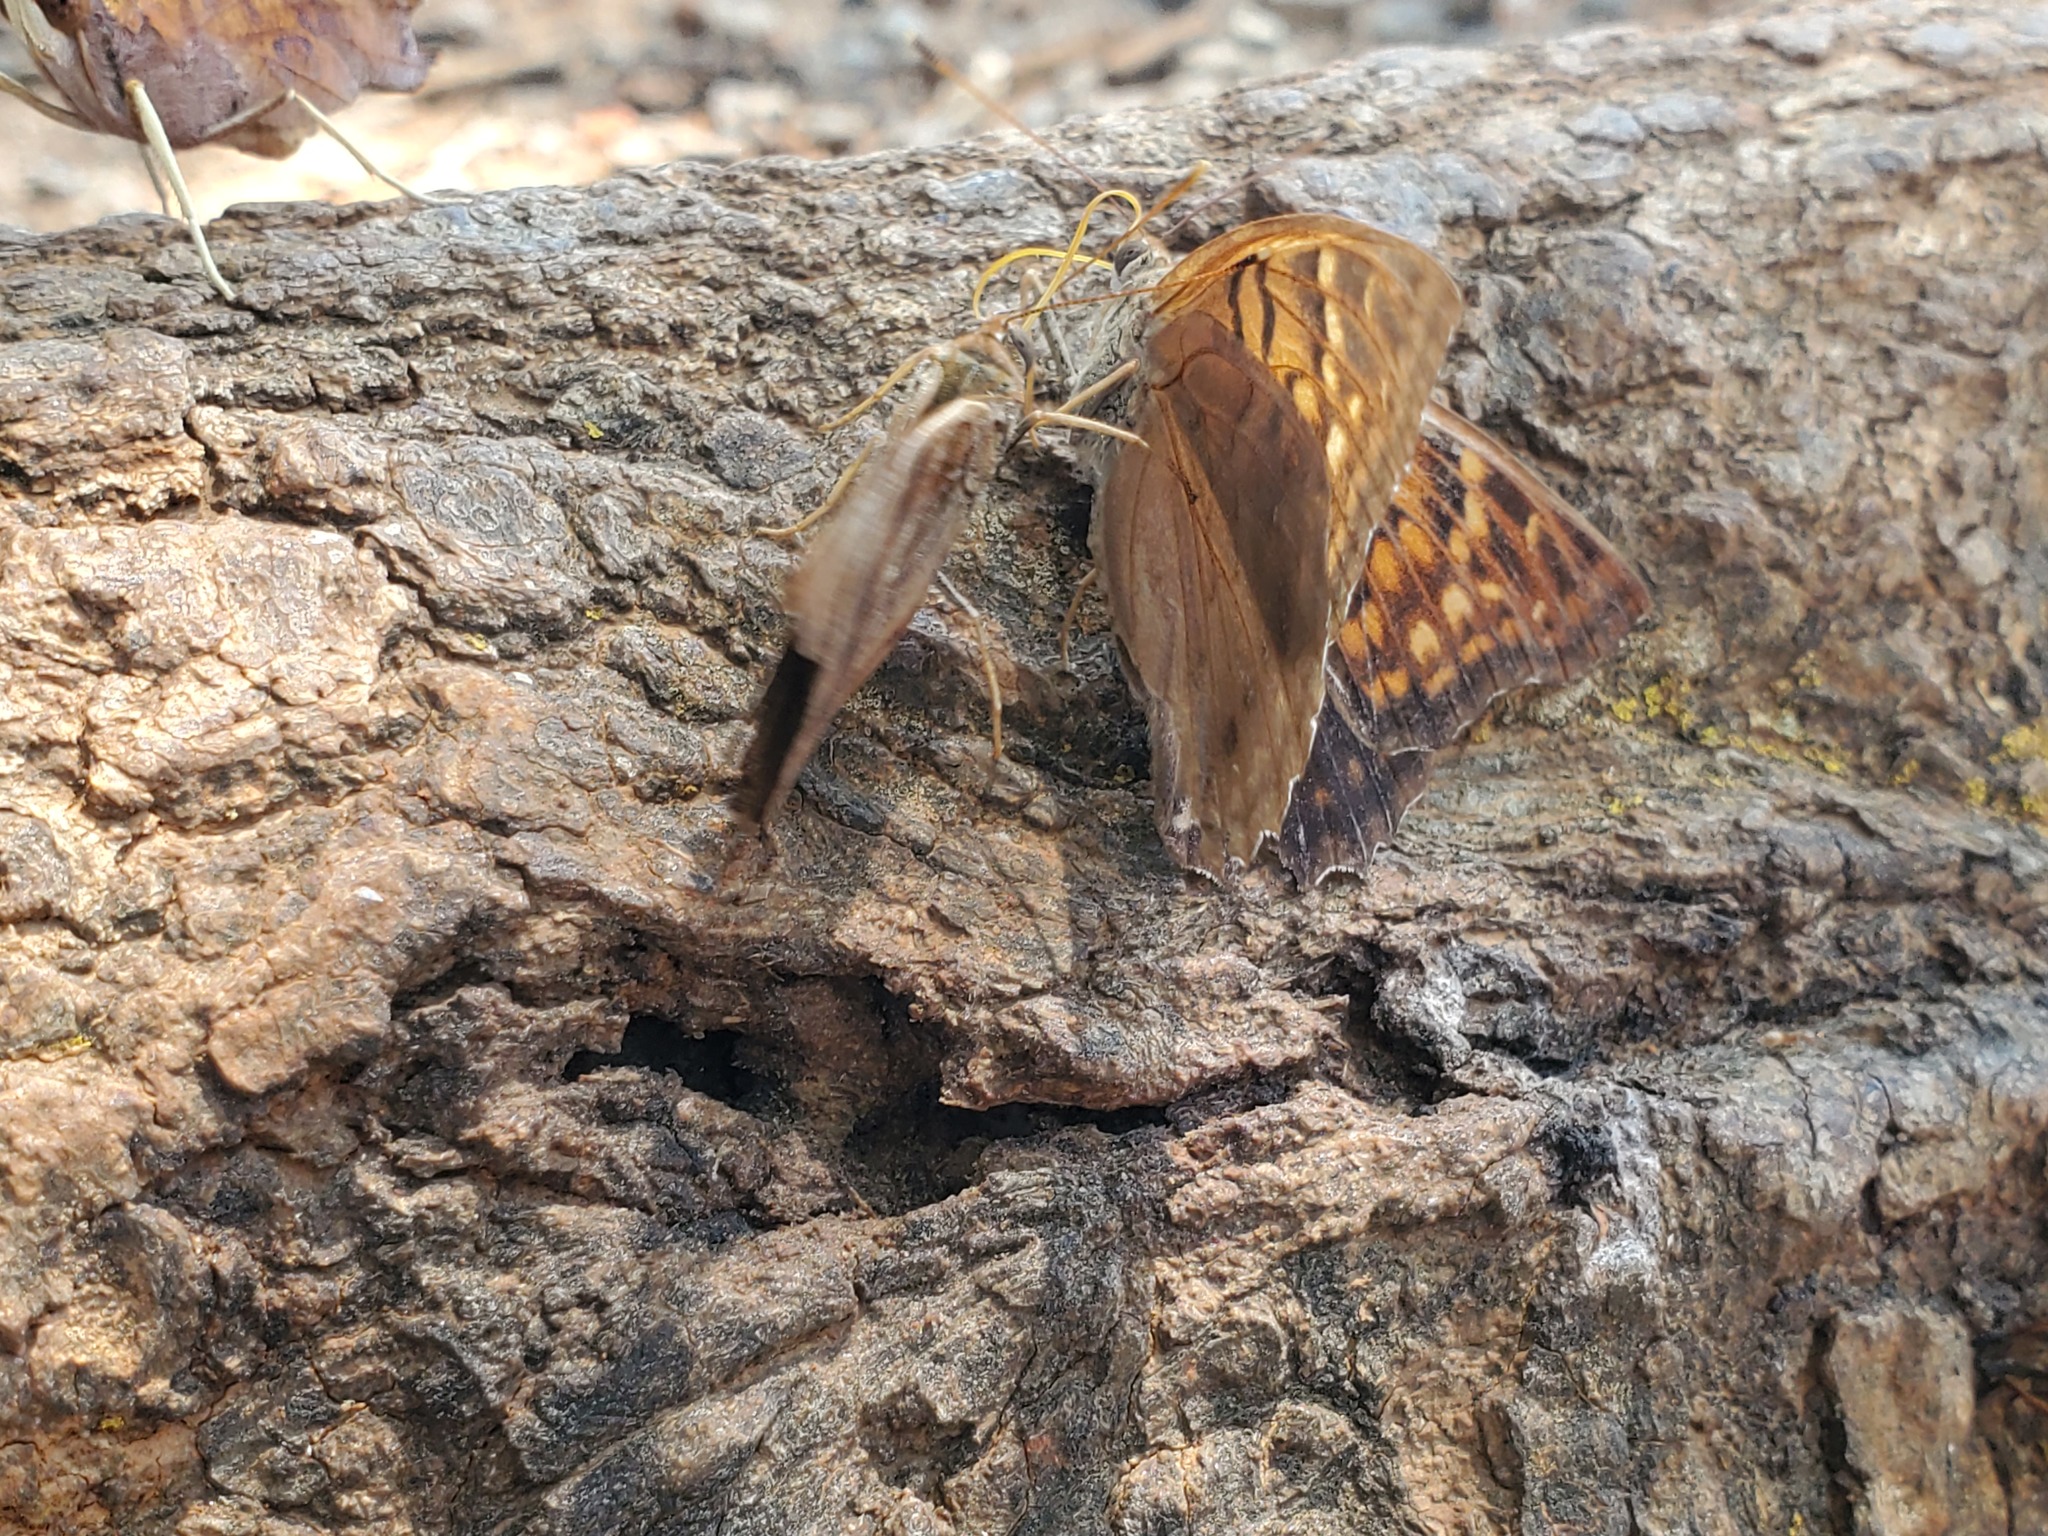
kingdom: Animalia
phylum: Arthropoda
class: Insecta
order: Lepidoptera
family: Nymphalidae
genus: Asterocampa
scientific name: Asterocampa clyton
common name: Tawny emperor
